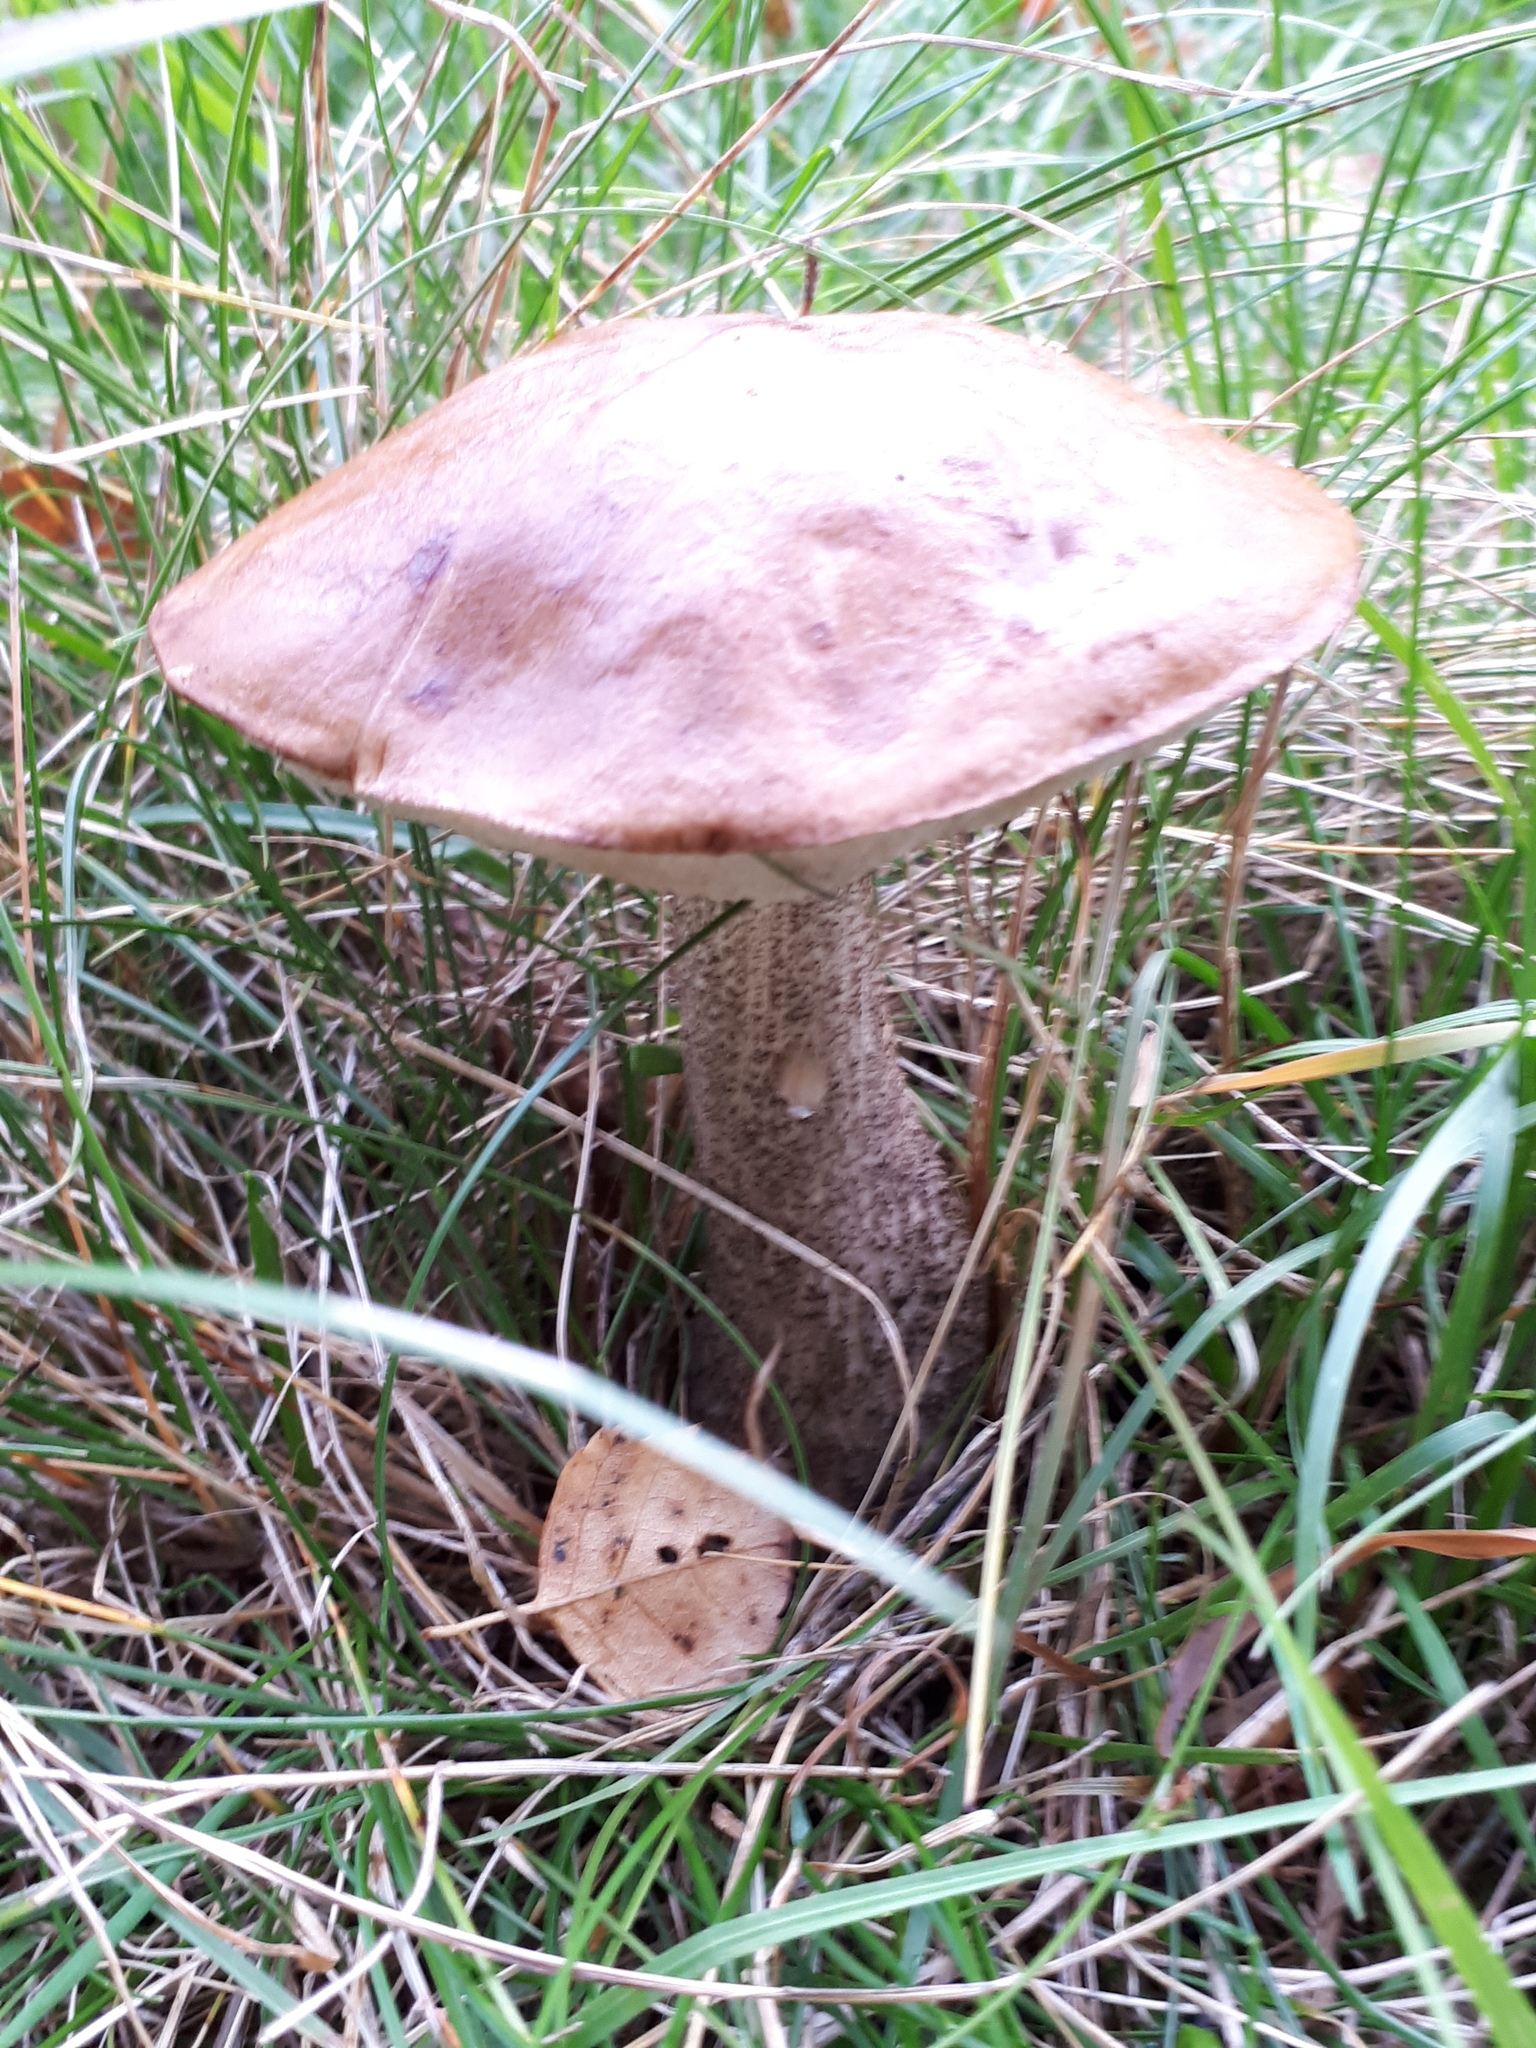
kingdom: Fungi
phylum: Basidiomycota
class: Agaricomycetes
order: Boletales
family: Boletaceae
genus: Leccinum
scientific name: Leccinum scabrum
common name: Blushing bolete
